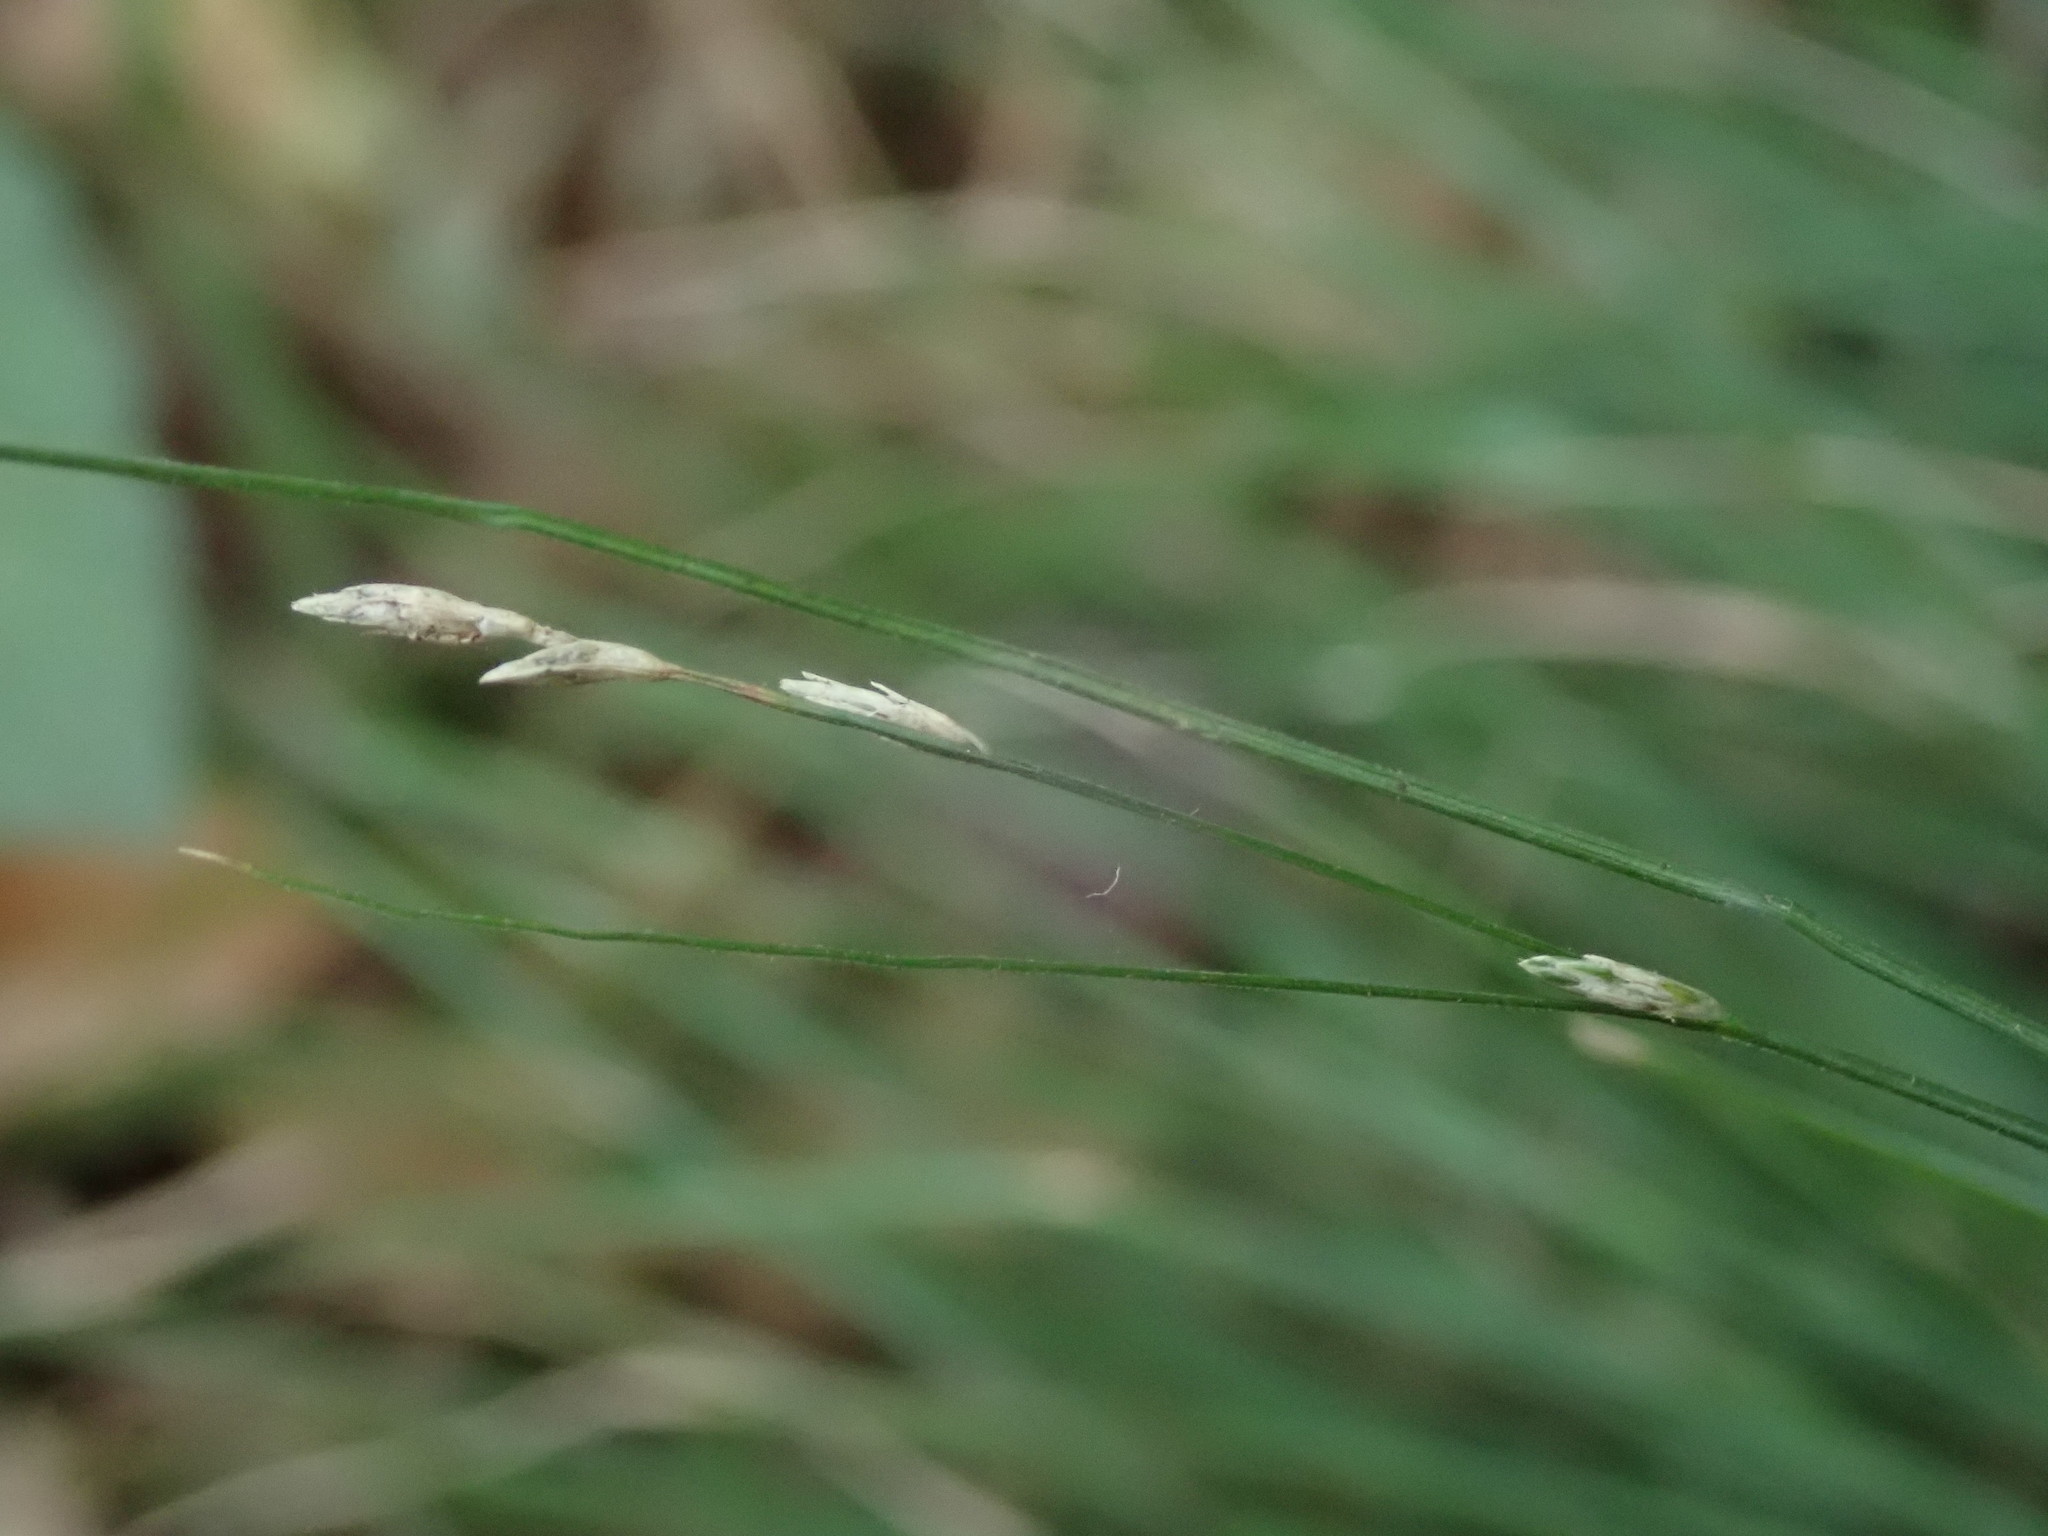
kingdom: Plantae
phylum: Tracheophyta
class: Liliopsida
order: Poales
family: Cyperaceae
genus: Carex
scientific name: Carex remota
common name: Remote sedge
